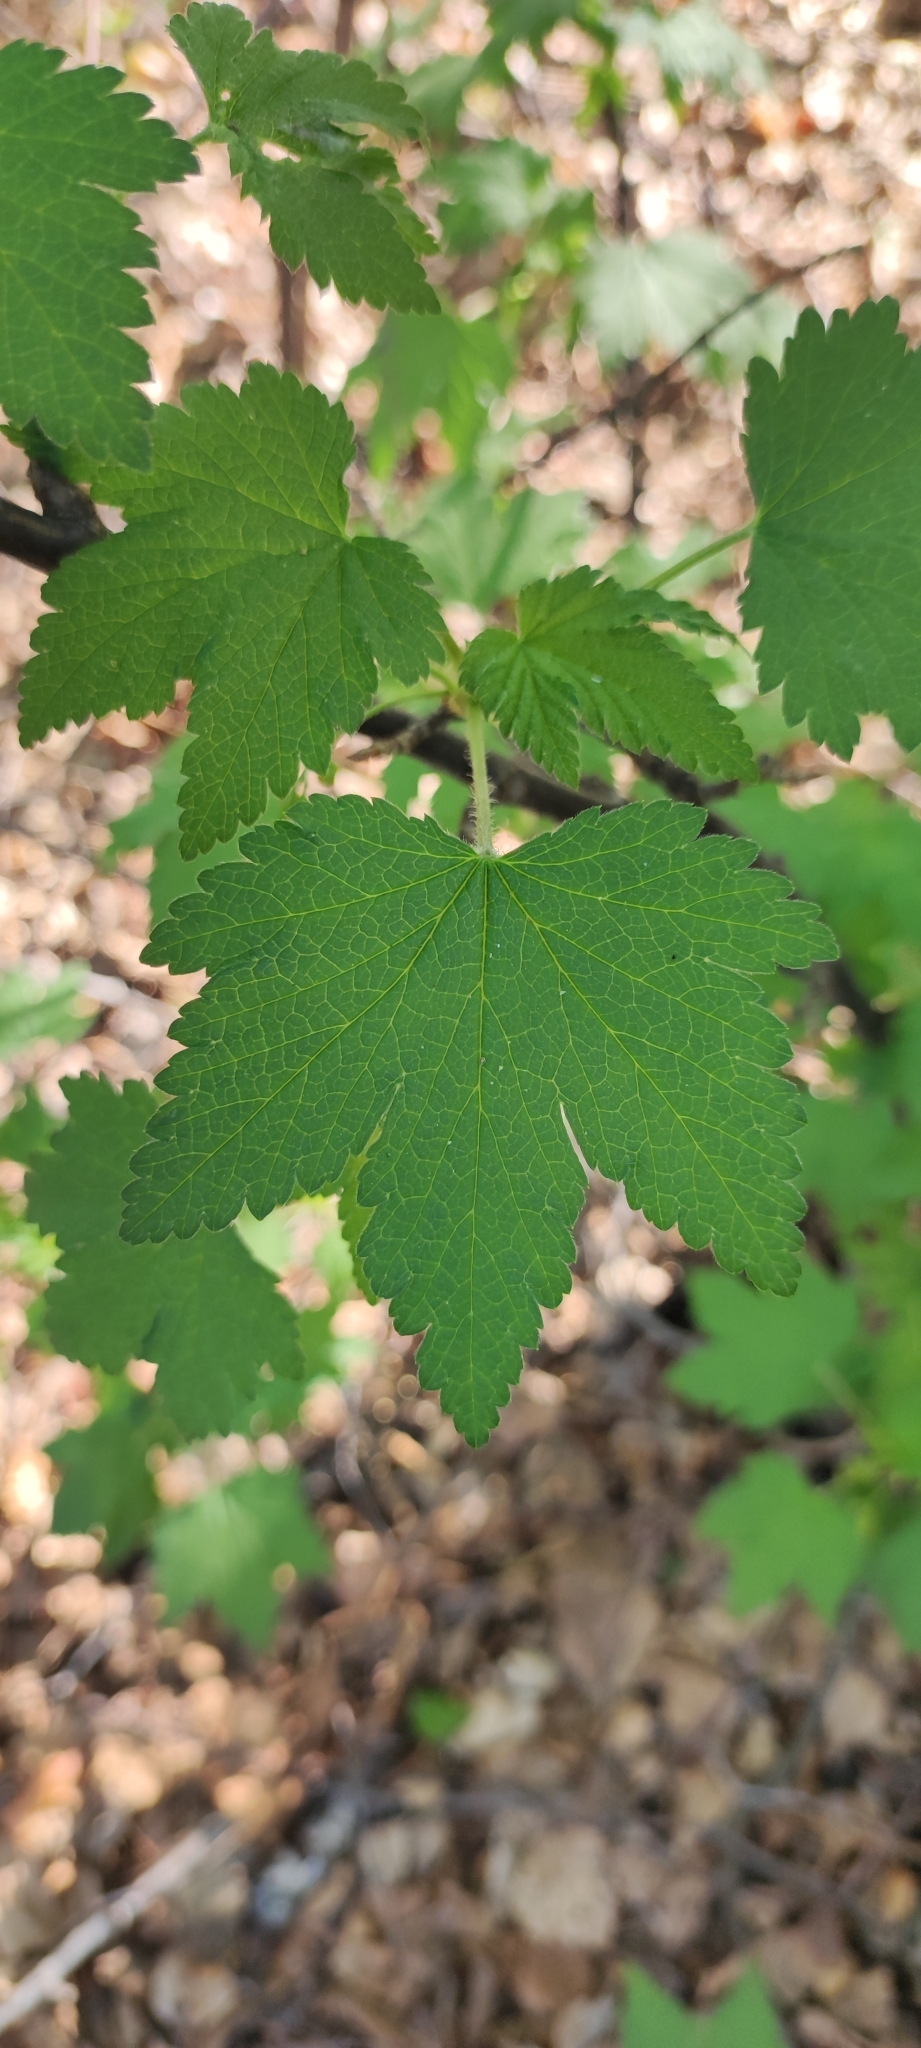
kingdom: Plantae
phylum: Tracheophyta
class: Magnoliopsida
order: Saxifragales
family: Grossulariaceae
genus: Ribes
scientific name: Ribes spicatum
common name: Downy currant
